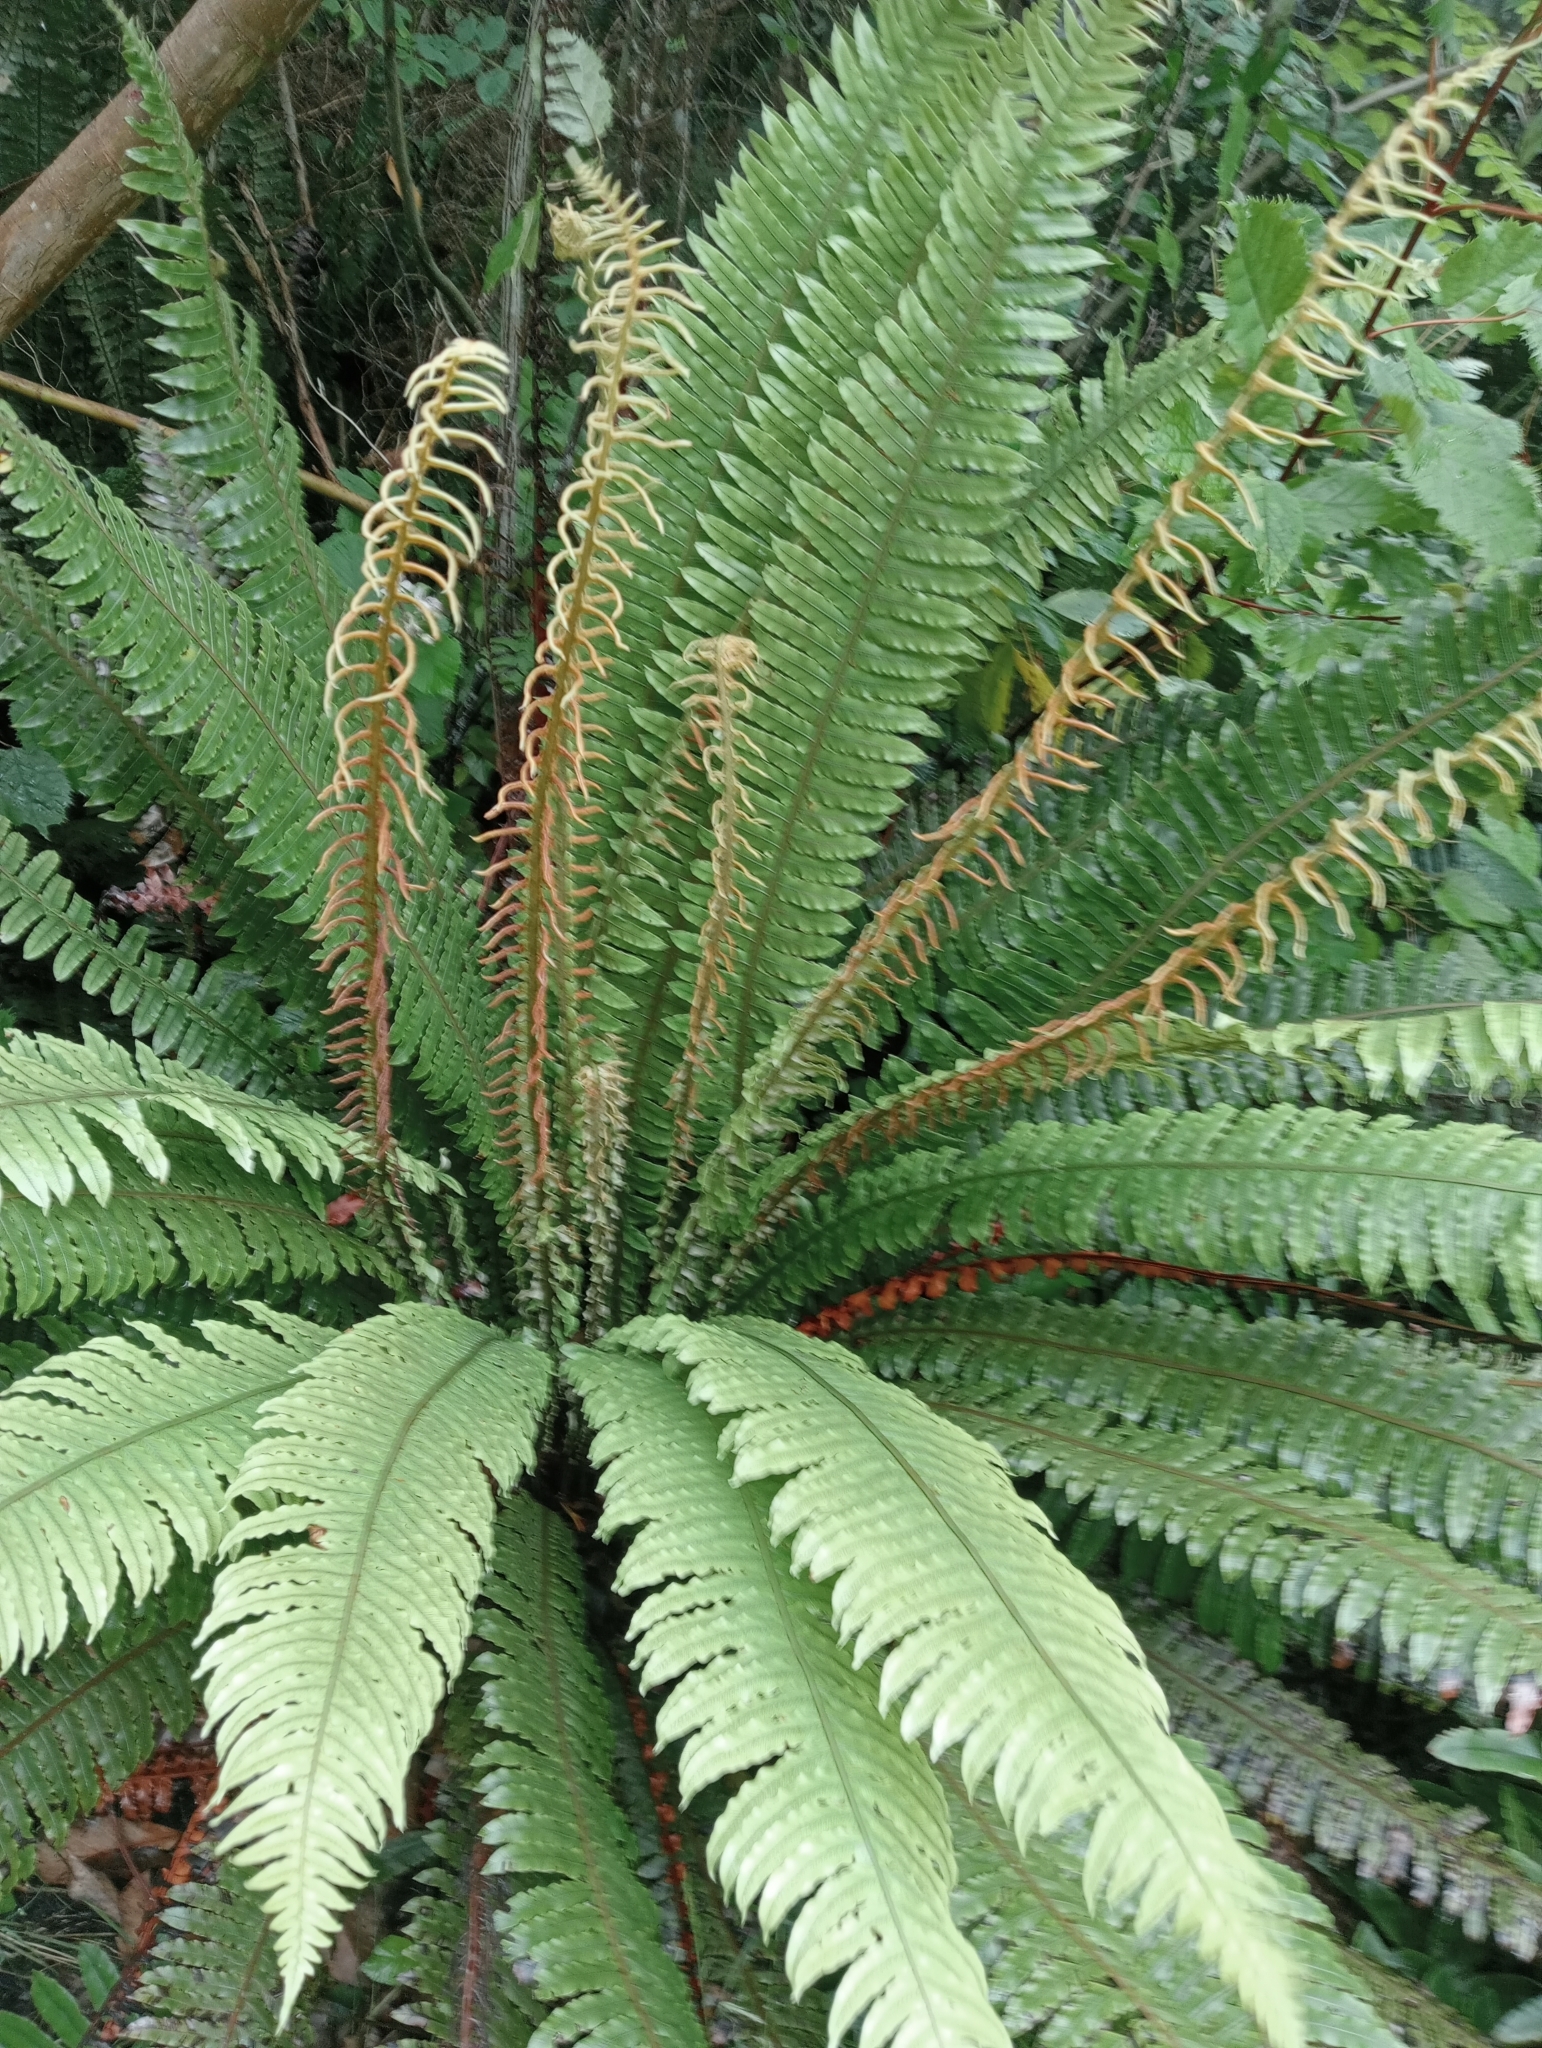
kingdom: Plantae
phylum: Tracheophyta
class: Polypodiopsida
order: Polypodiales
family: Blechnaceae
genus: Lomaria
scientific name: Lomaria discolor
